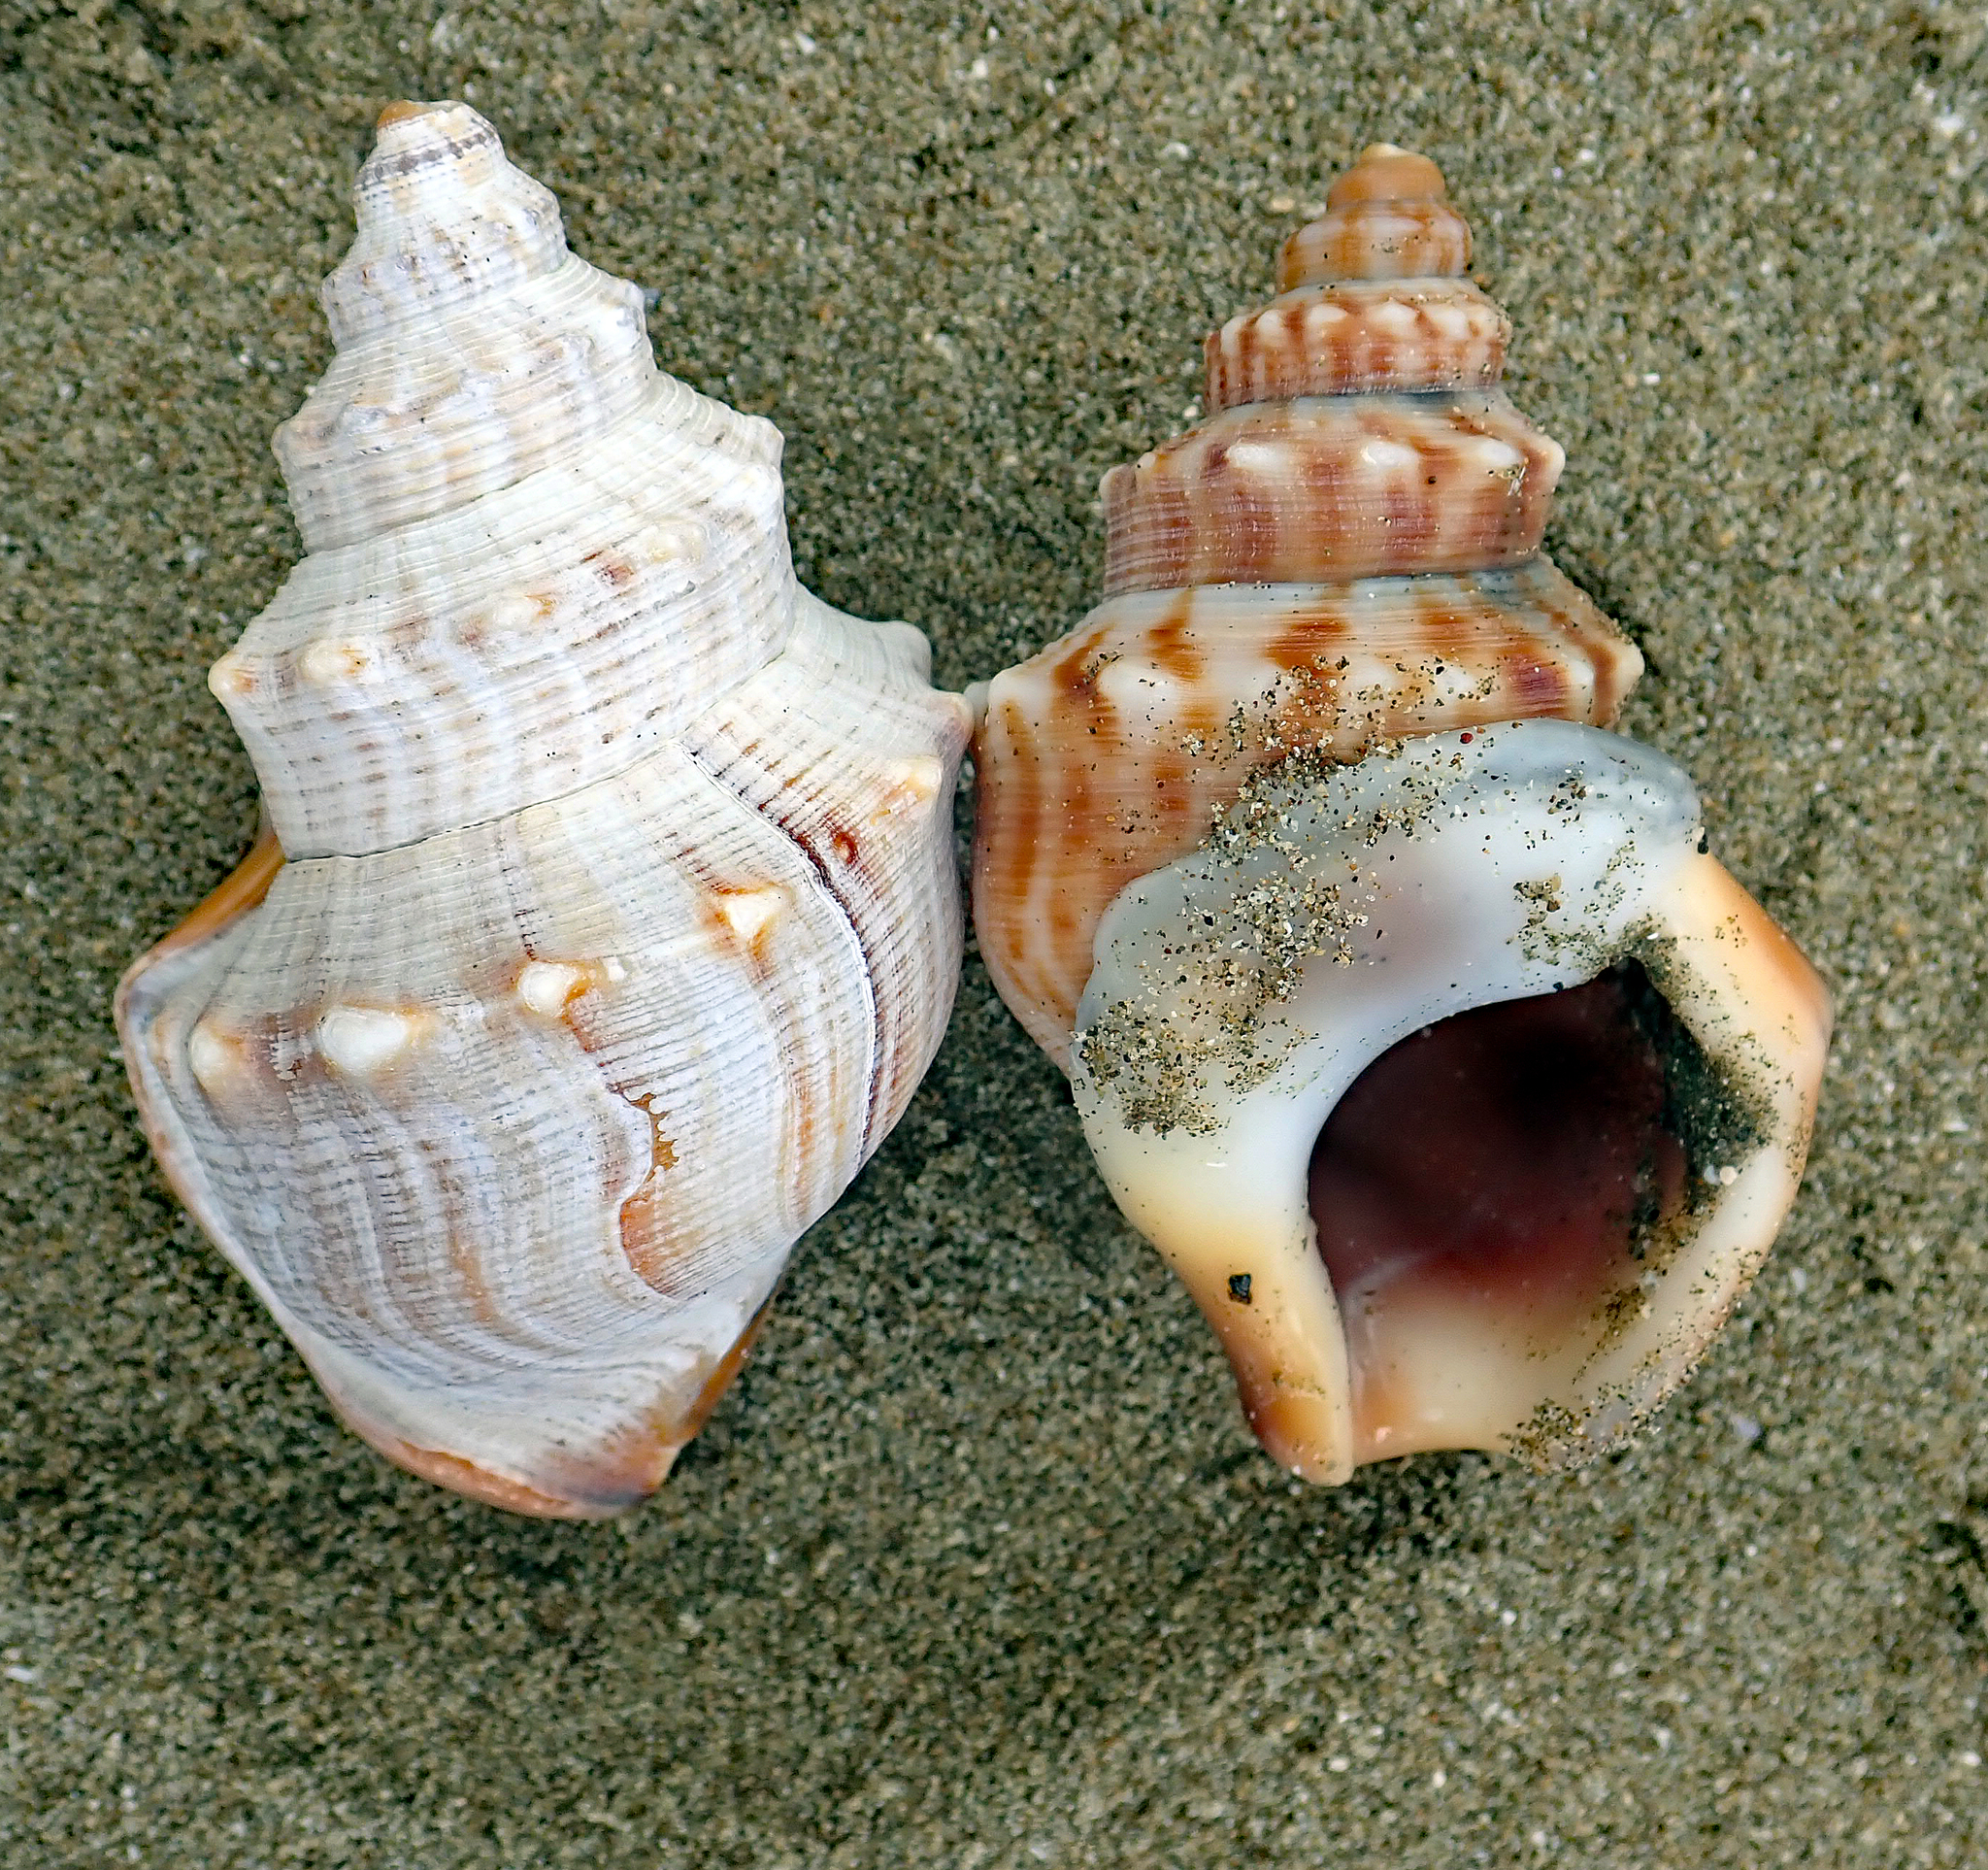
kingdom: Animalia
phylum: Mollusca
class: Gastropoda
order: Littorinimorpha
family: Struthiolariidae
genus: Struthiolaria
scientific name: Struthiolaria papulosa
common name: Large ostrich foot
